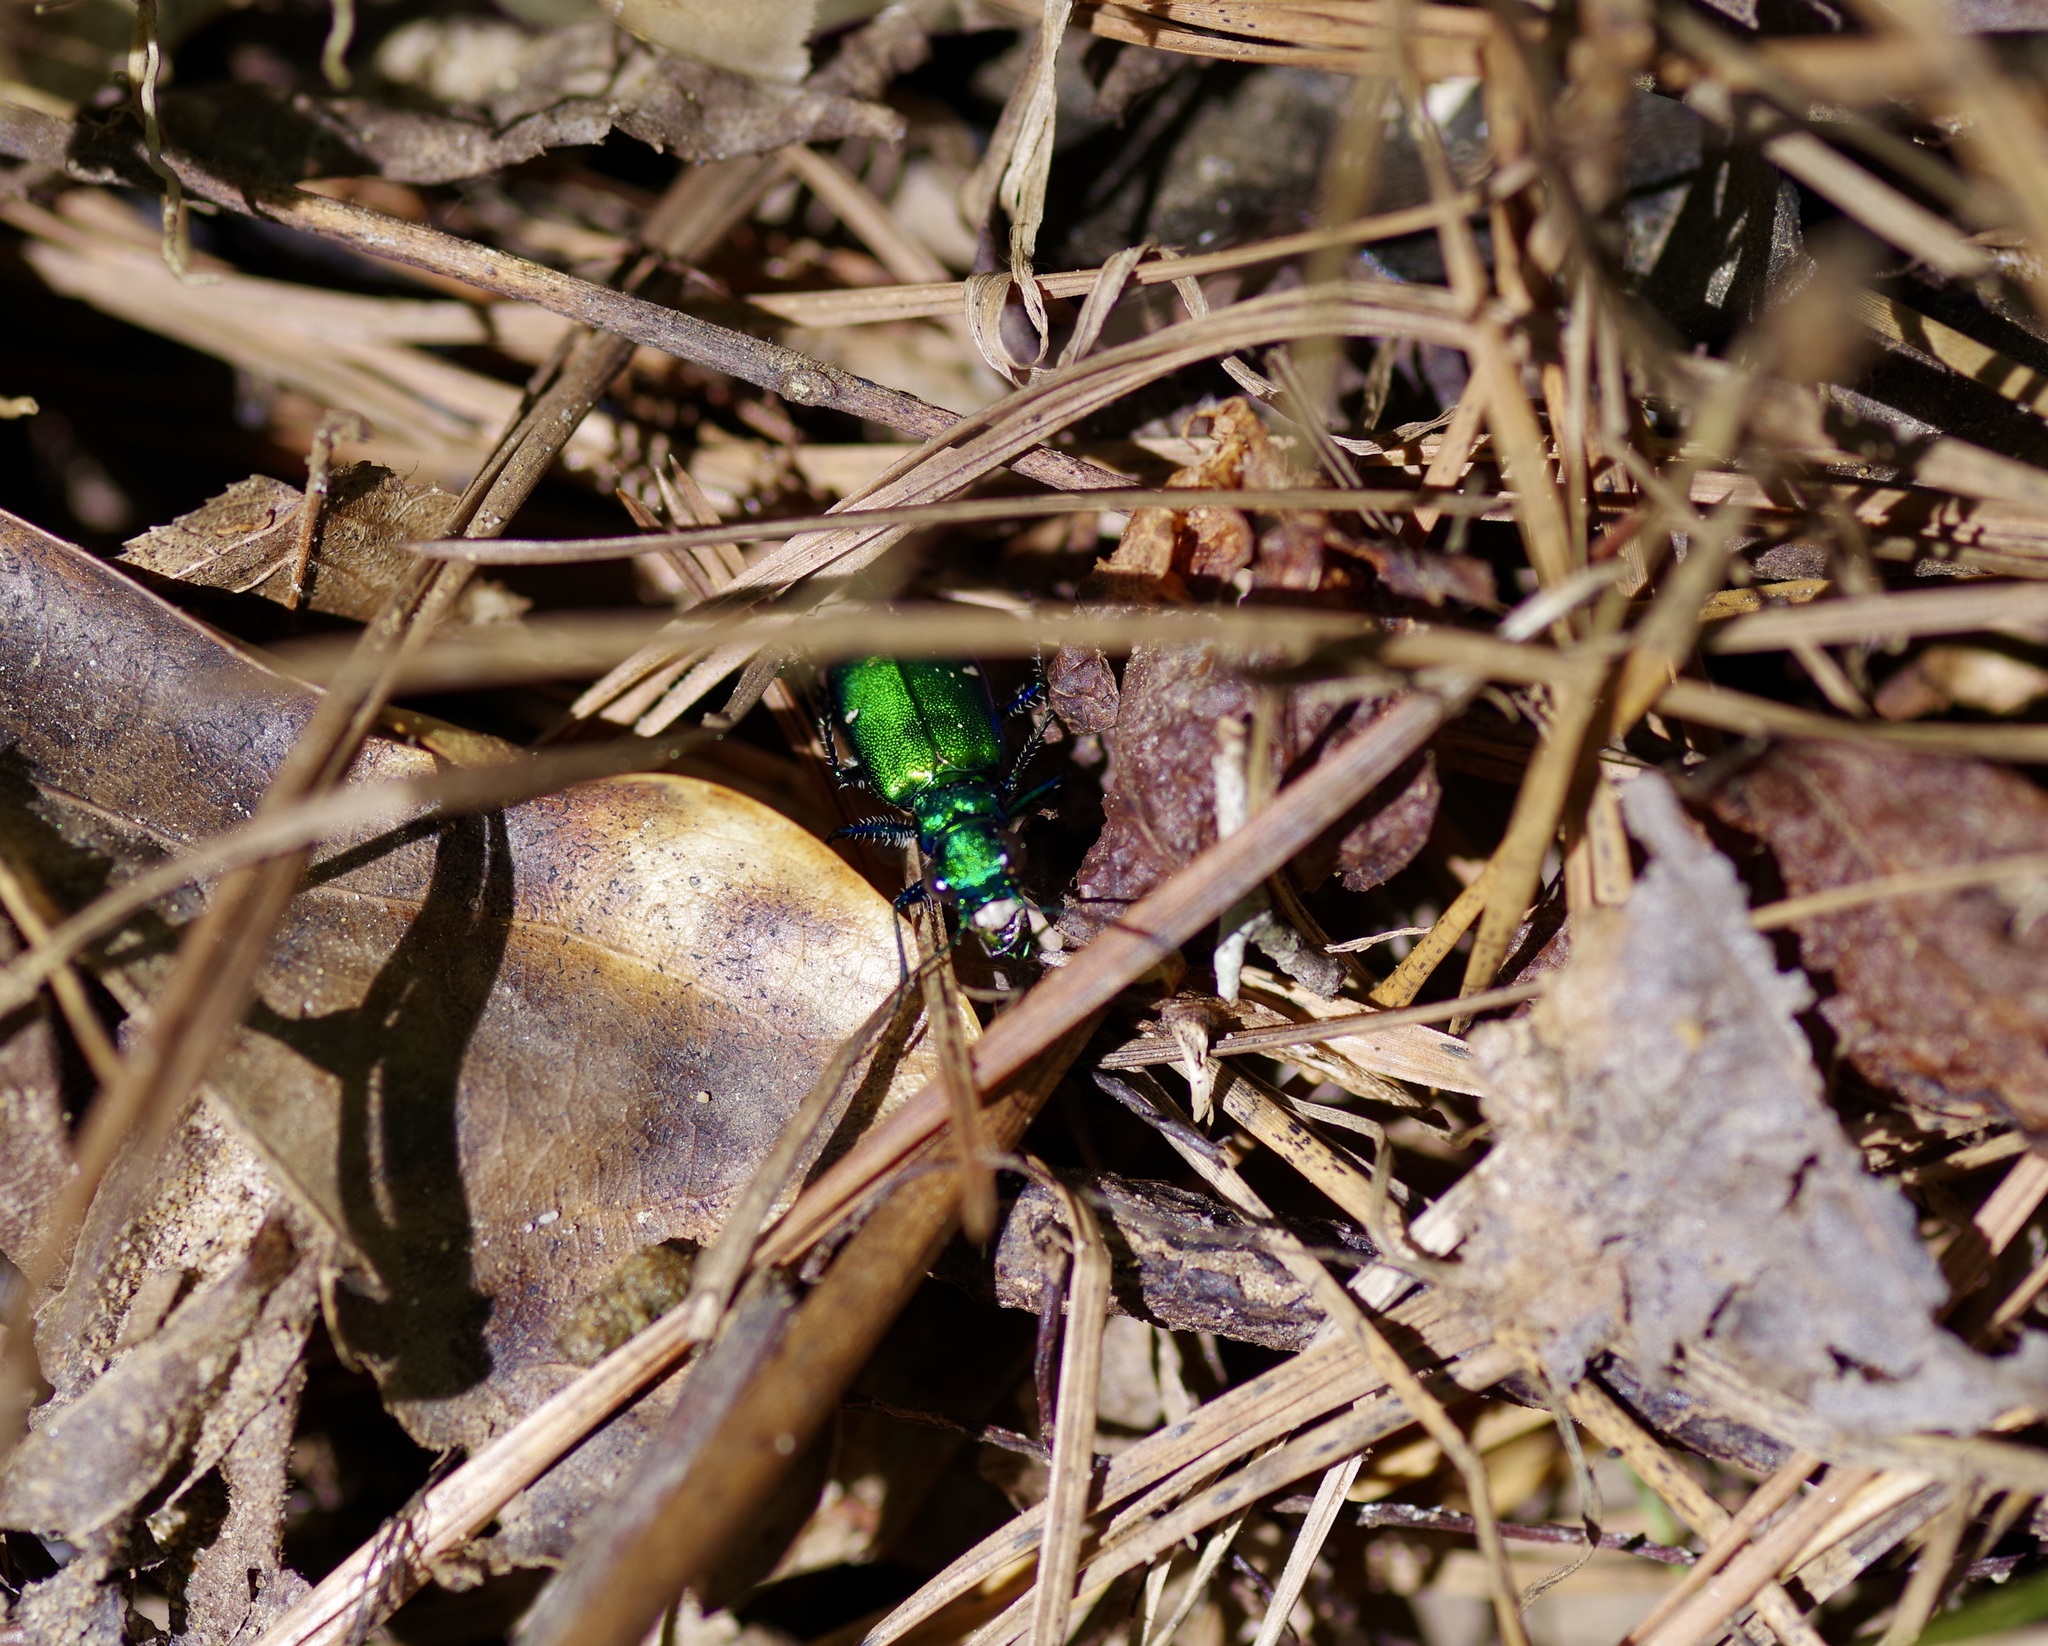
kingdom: Animalia
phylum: Arthropoda
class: Insecta
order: Coleoptera
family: Carabidae
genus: Cicindela
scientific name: Cicindela sexguttata
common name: Six-spotted tiger beetle
